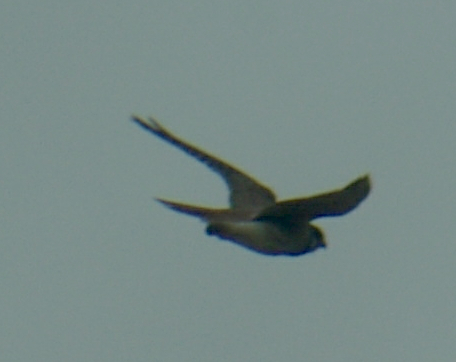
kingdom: Animalia
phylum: Chordata
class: Aves
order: Falconiformes
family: Falconidae
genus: Falco
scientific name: Falco sparverius
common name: American kestrel
